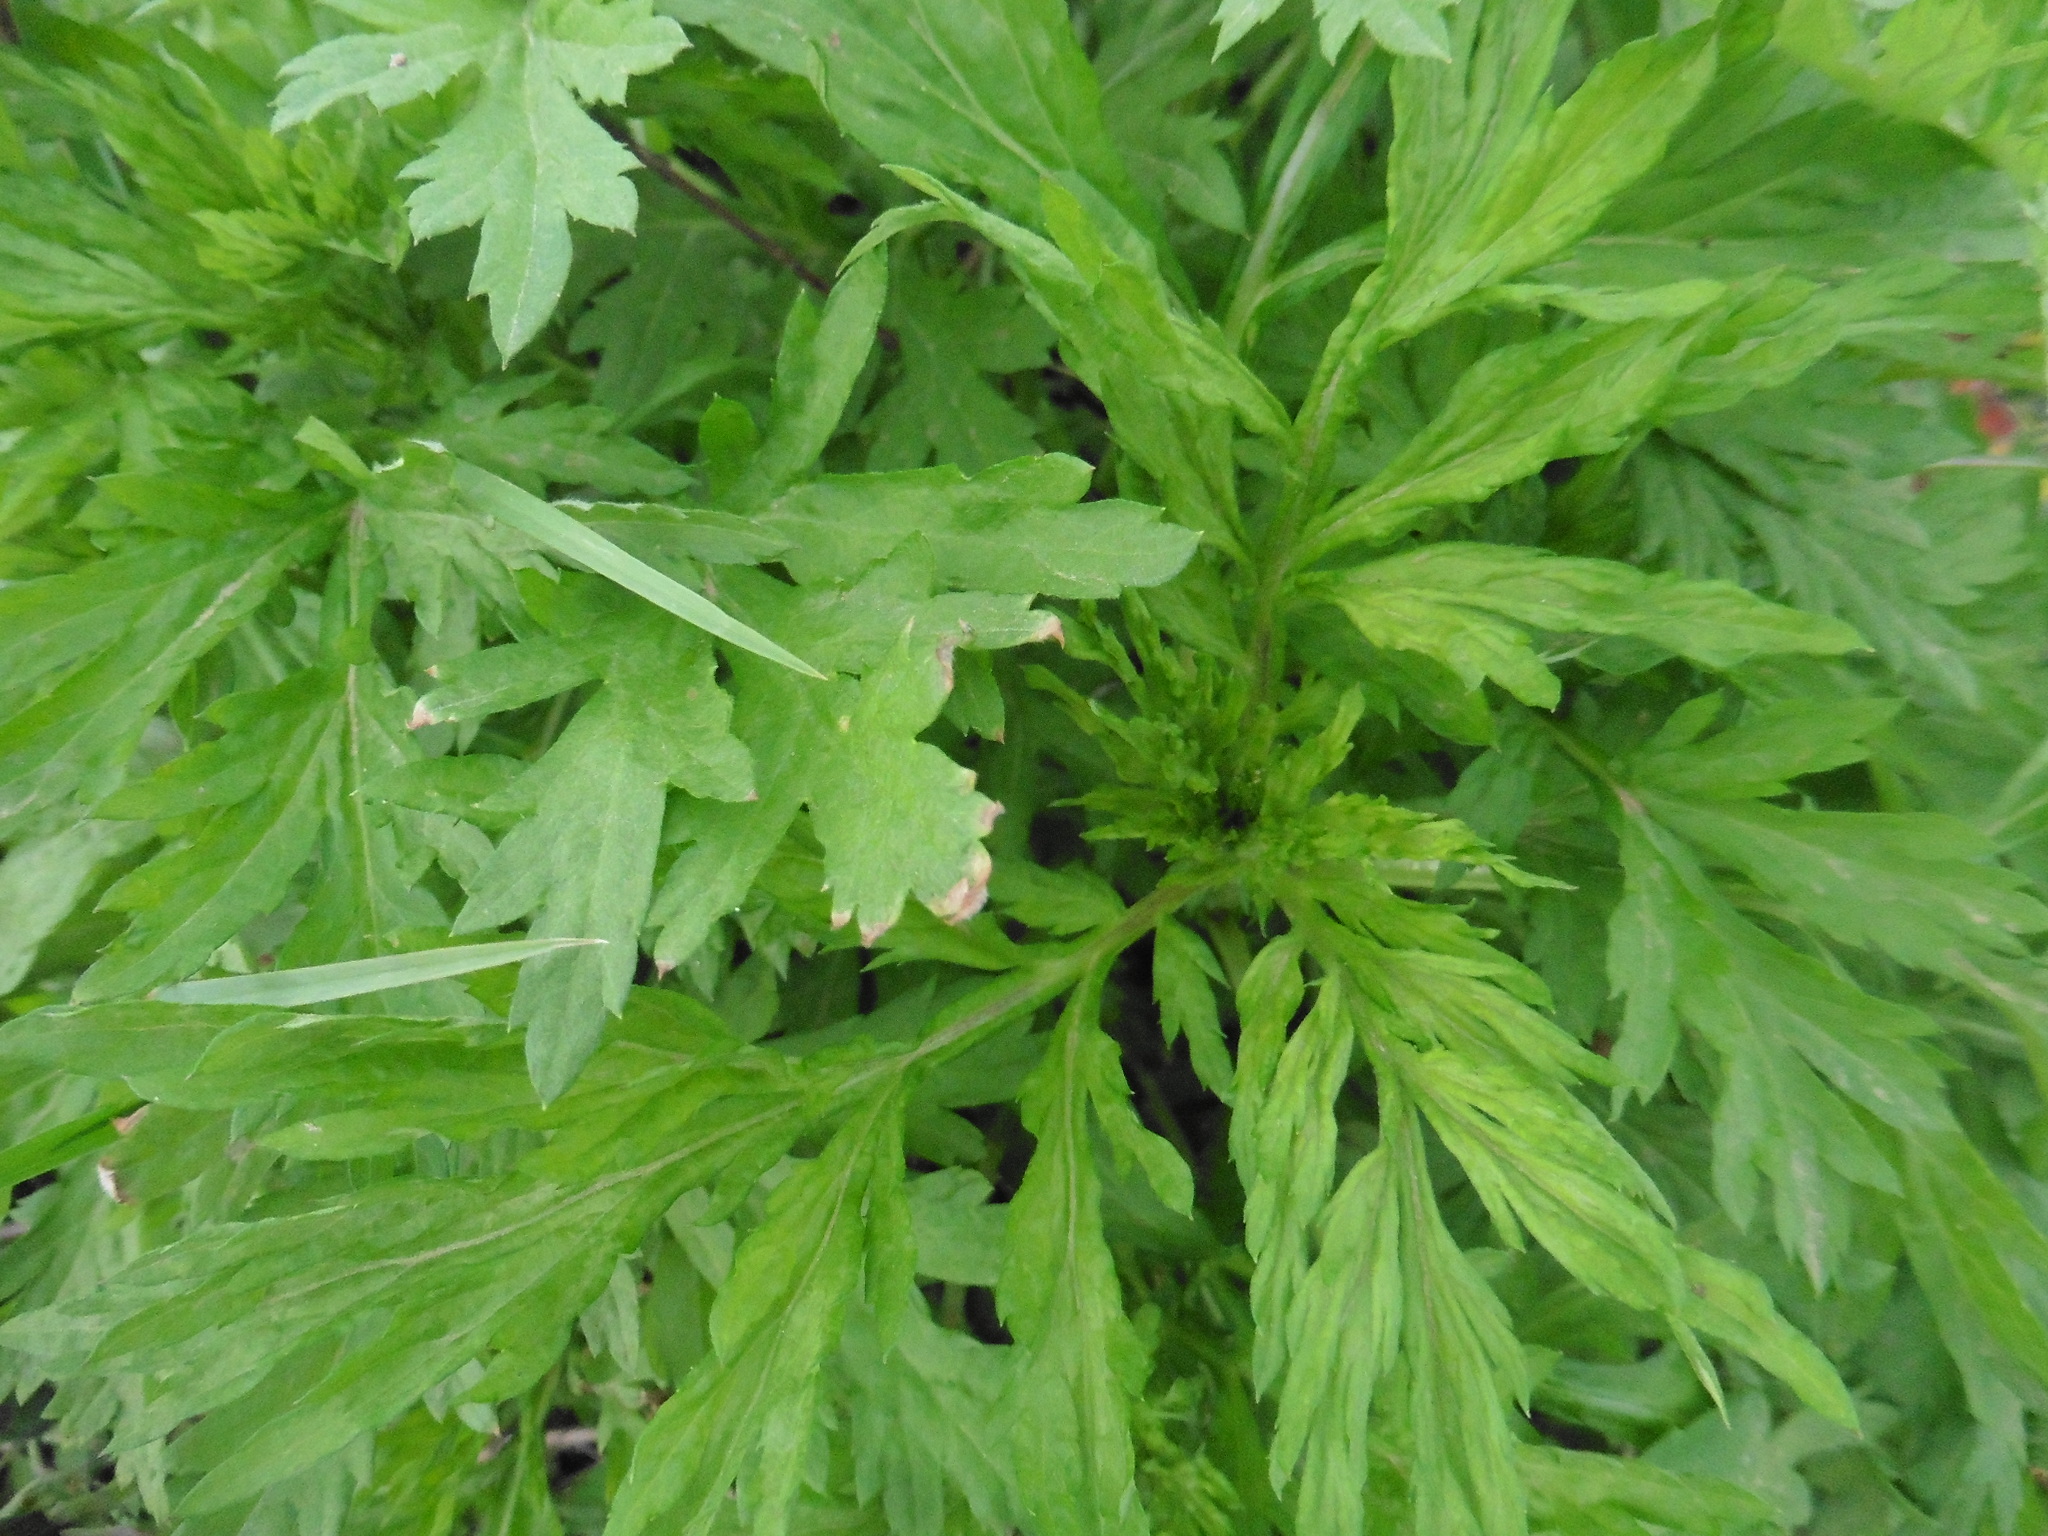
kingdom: Plantae
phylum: Tracheophyta
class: Magnoliopsida
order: Asterales
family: Asteraceae
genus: Artemisia
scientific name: Artemisia vulgaris
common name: Mugwort
